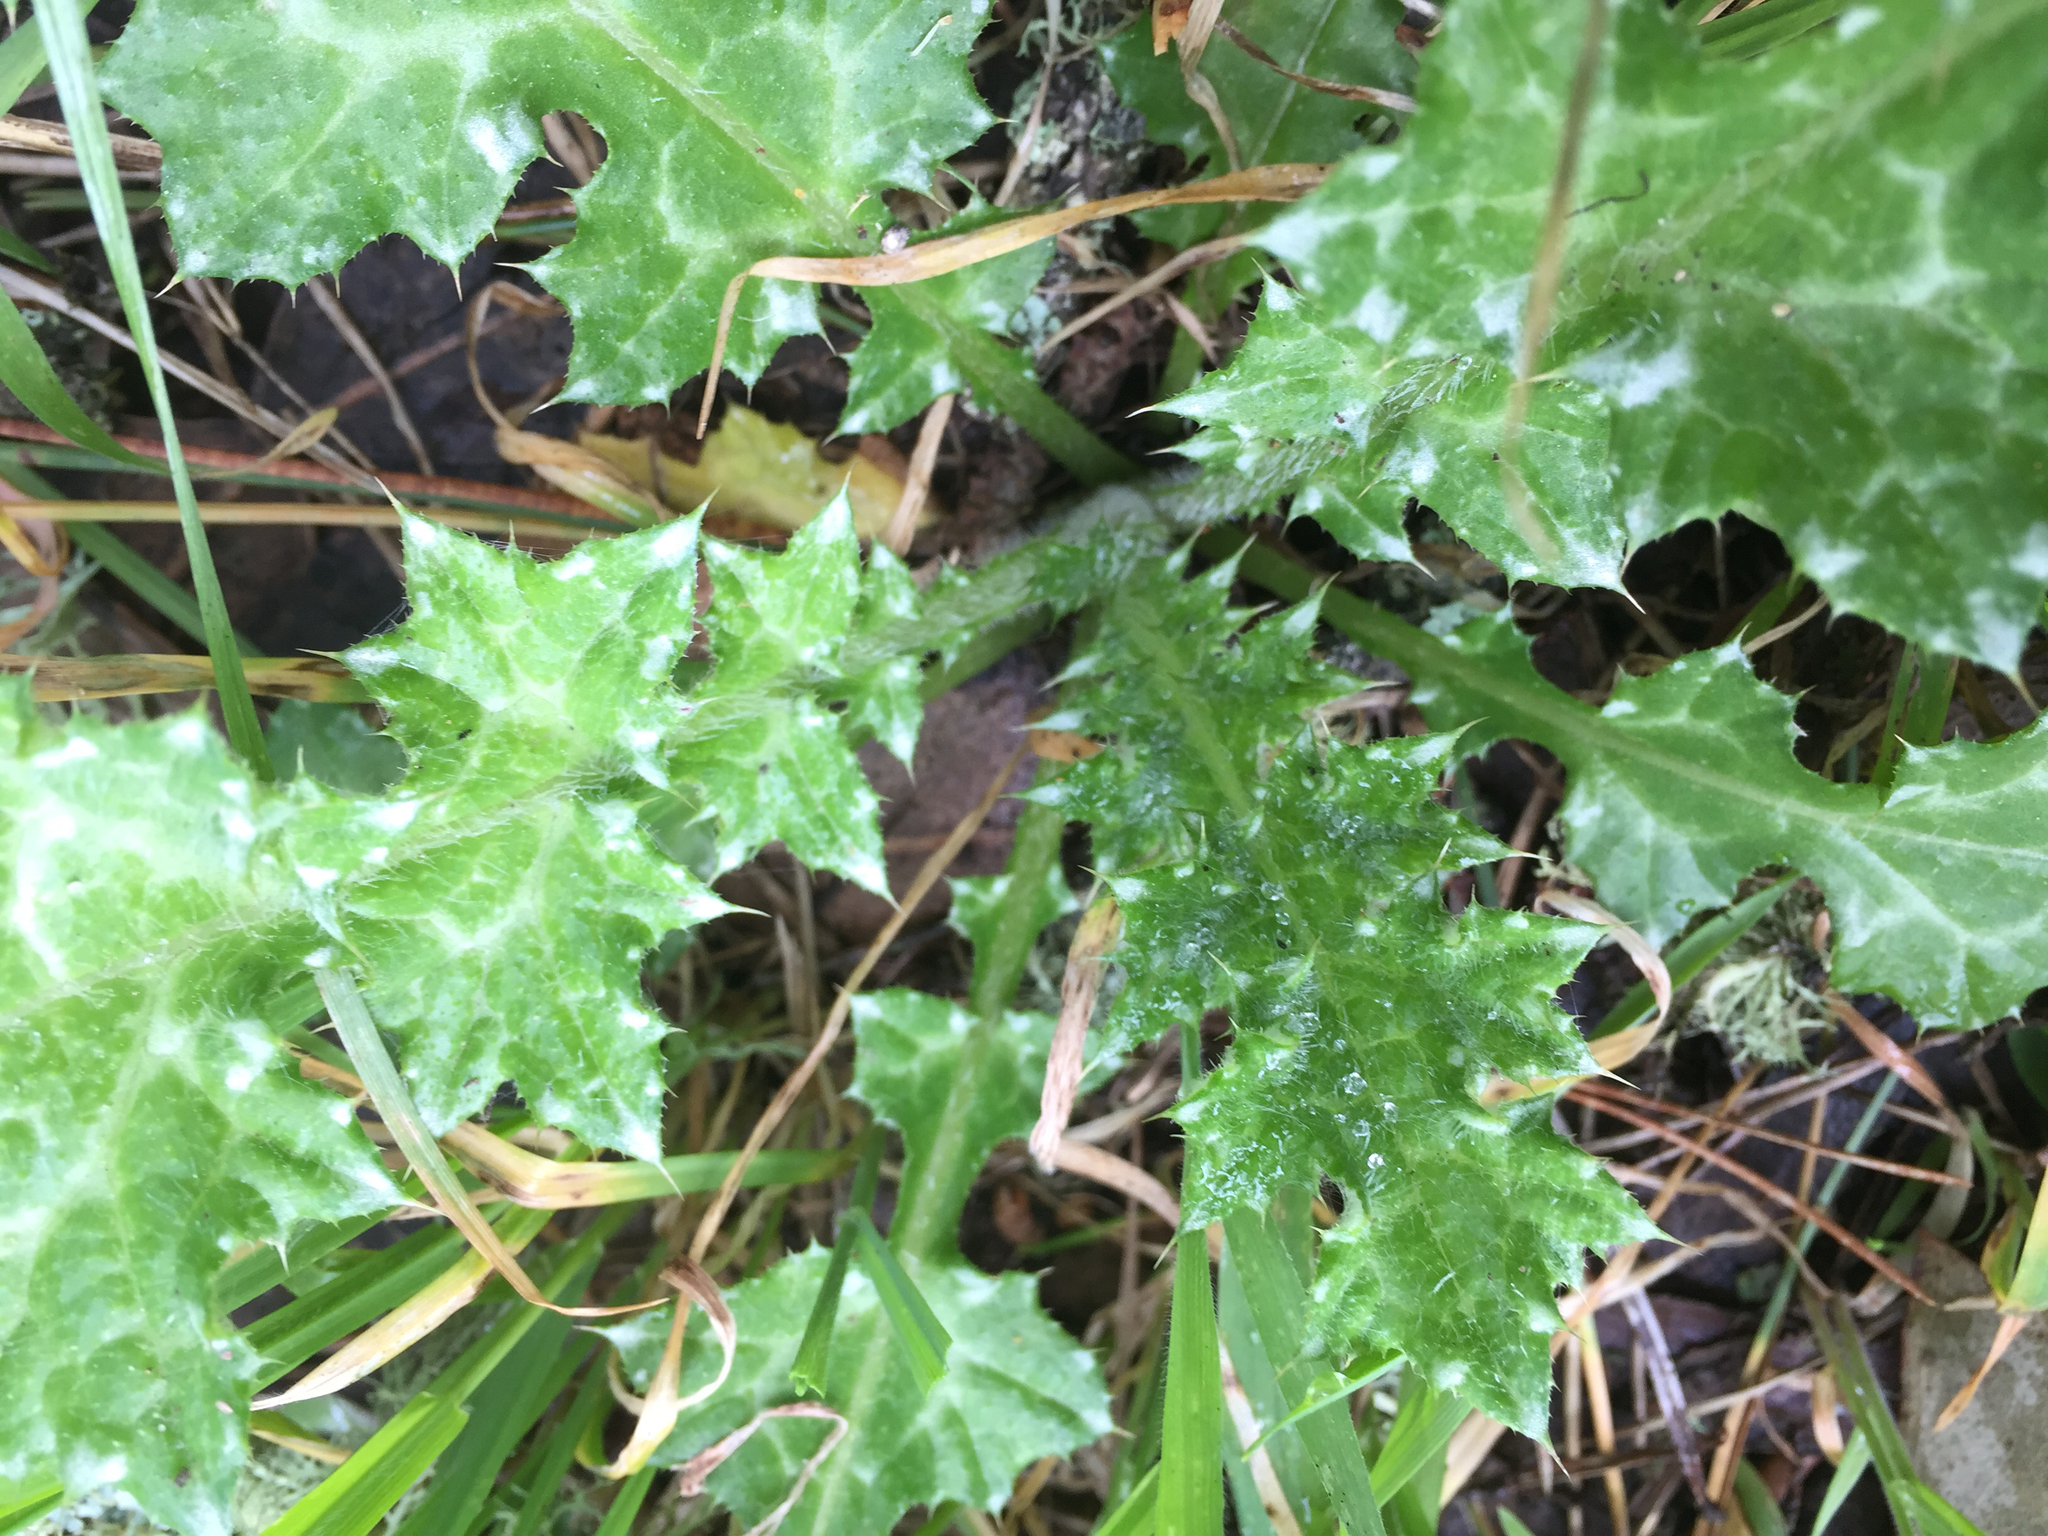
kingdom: Plantae
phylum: Tracheophyta
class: Magnoliopsida
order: Asterales
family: Asteraceae
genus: Carduus
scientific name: Carduus pycnocephalus
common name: Plymouth thistle
